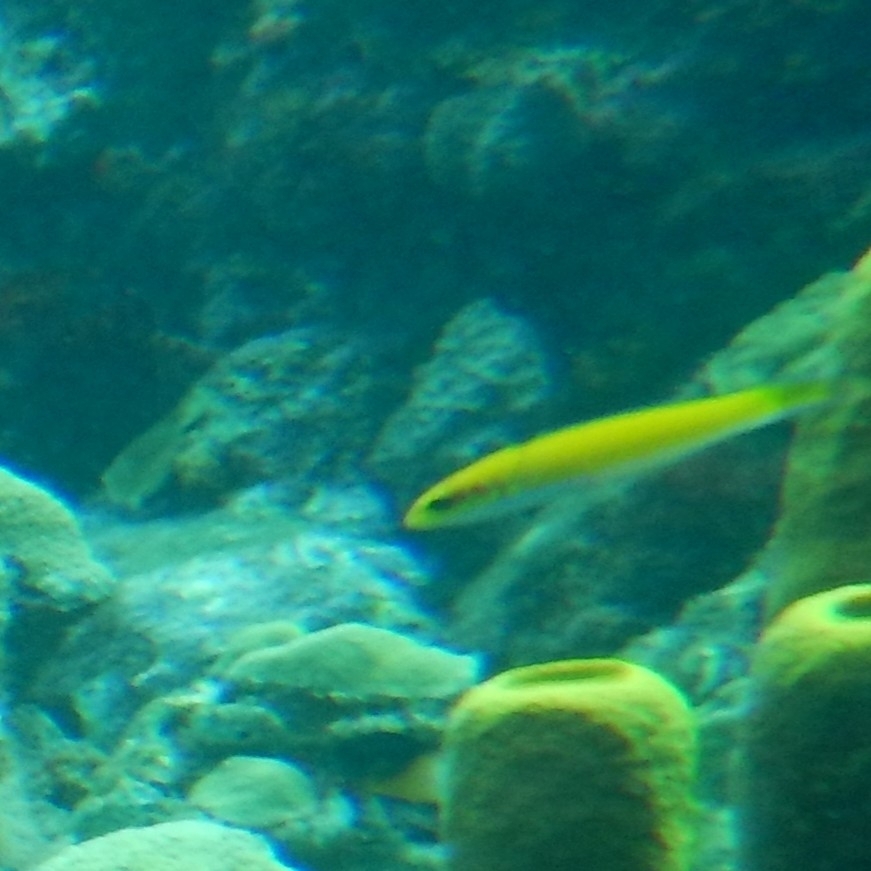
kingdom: Animalia
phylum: Chordata
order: Perciformes
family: Labridae
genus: Thalassoma
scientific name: Thalassoma bifasciatum
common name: Bluehead wrasse
